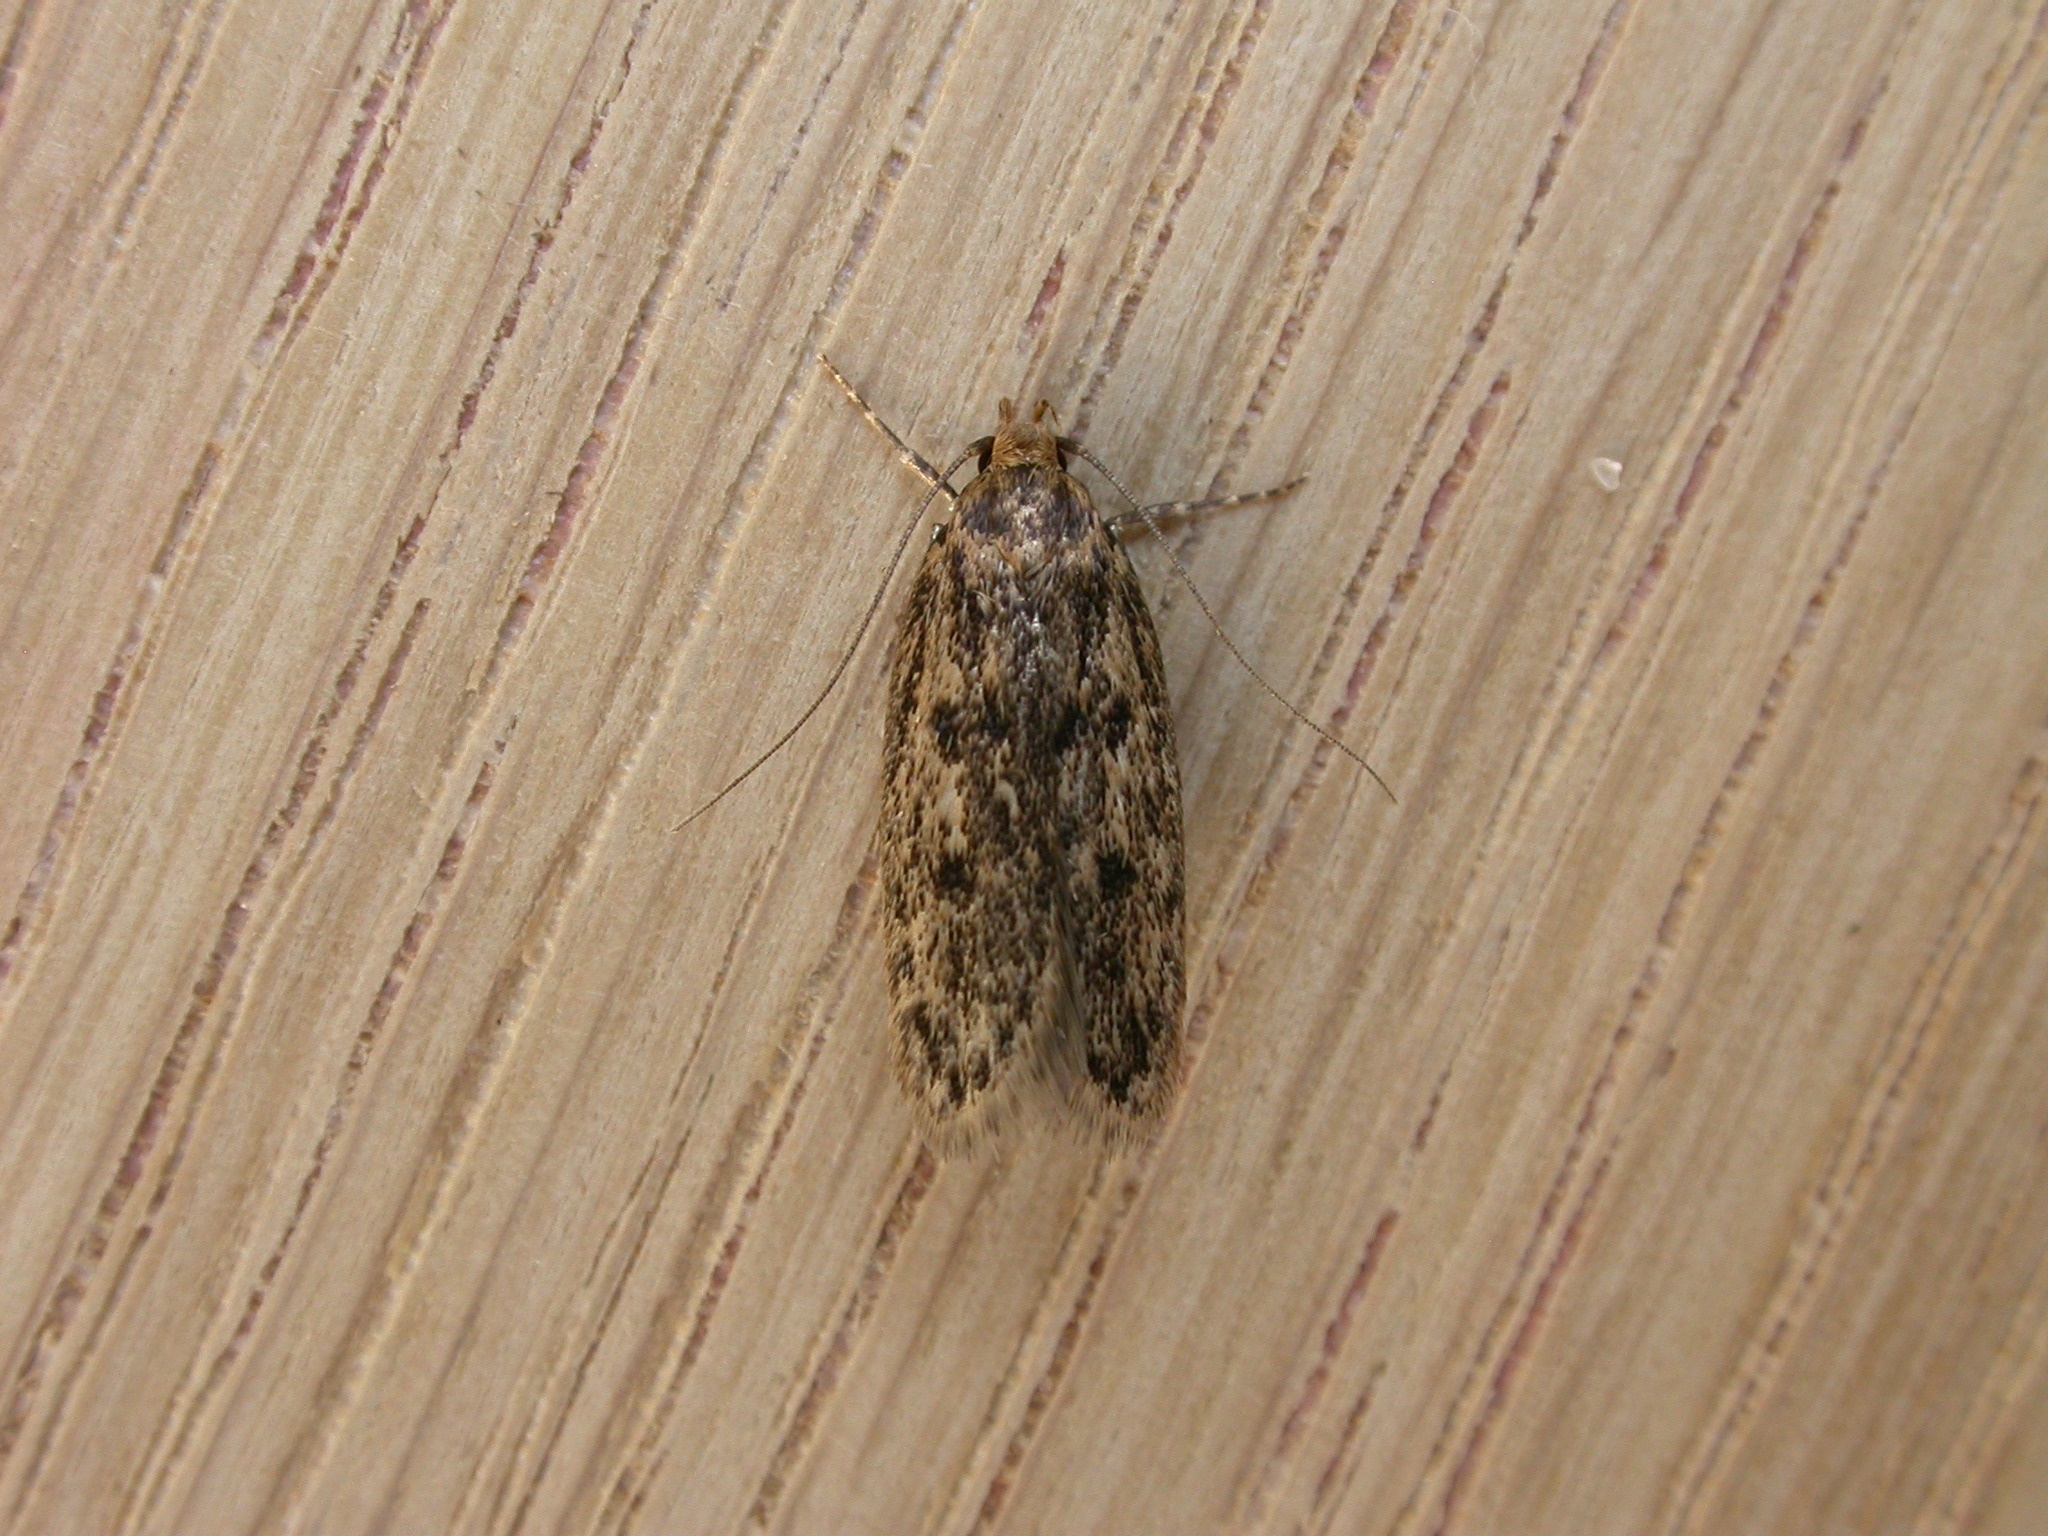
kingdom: Animalia
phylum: Arthropoda
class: Insecta
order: Lepidoptera
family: Oecophoridae
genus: Hofmannophila
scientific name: Hofmannophila pseudospretella
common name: Brown house moth
